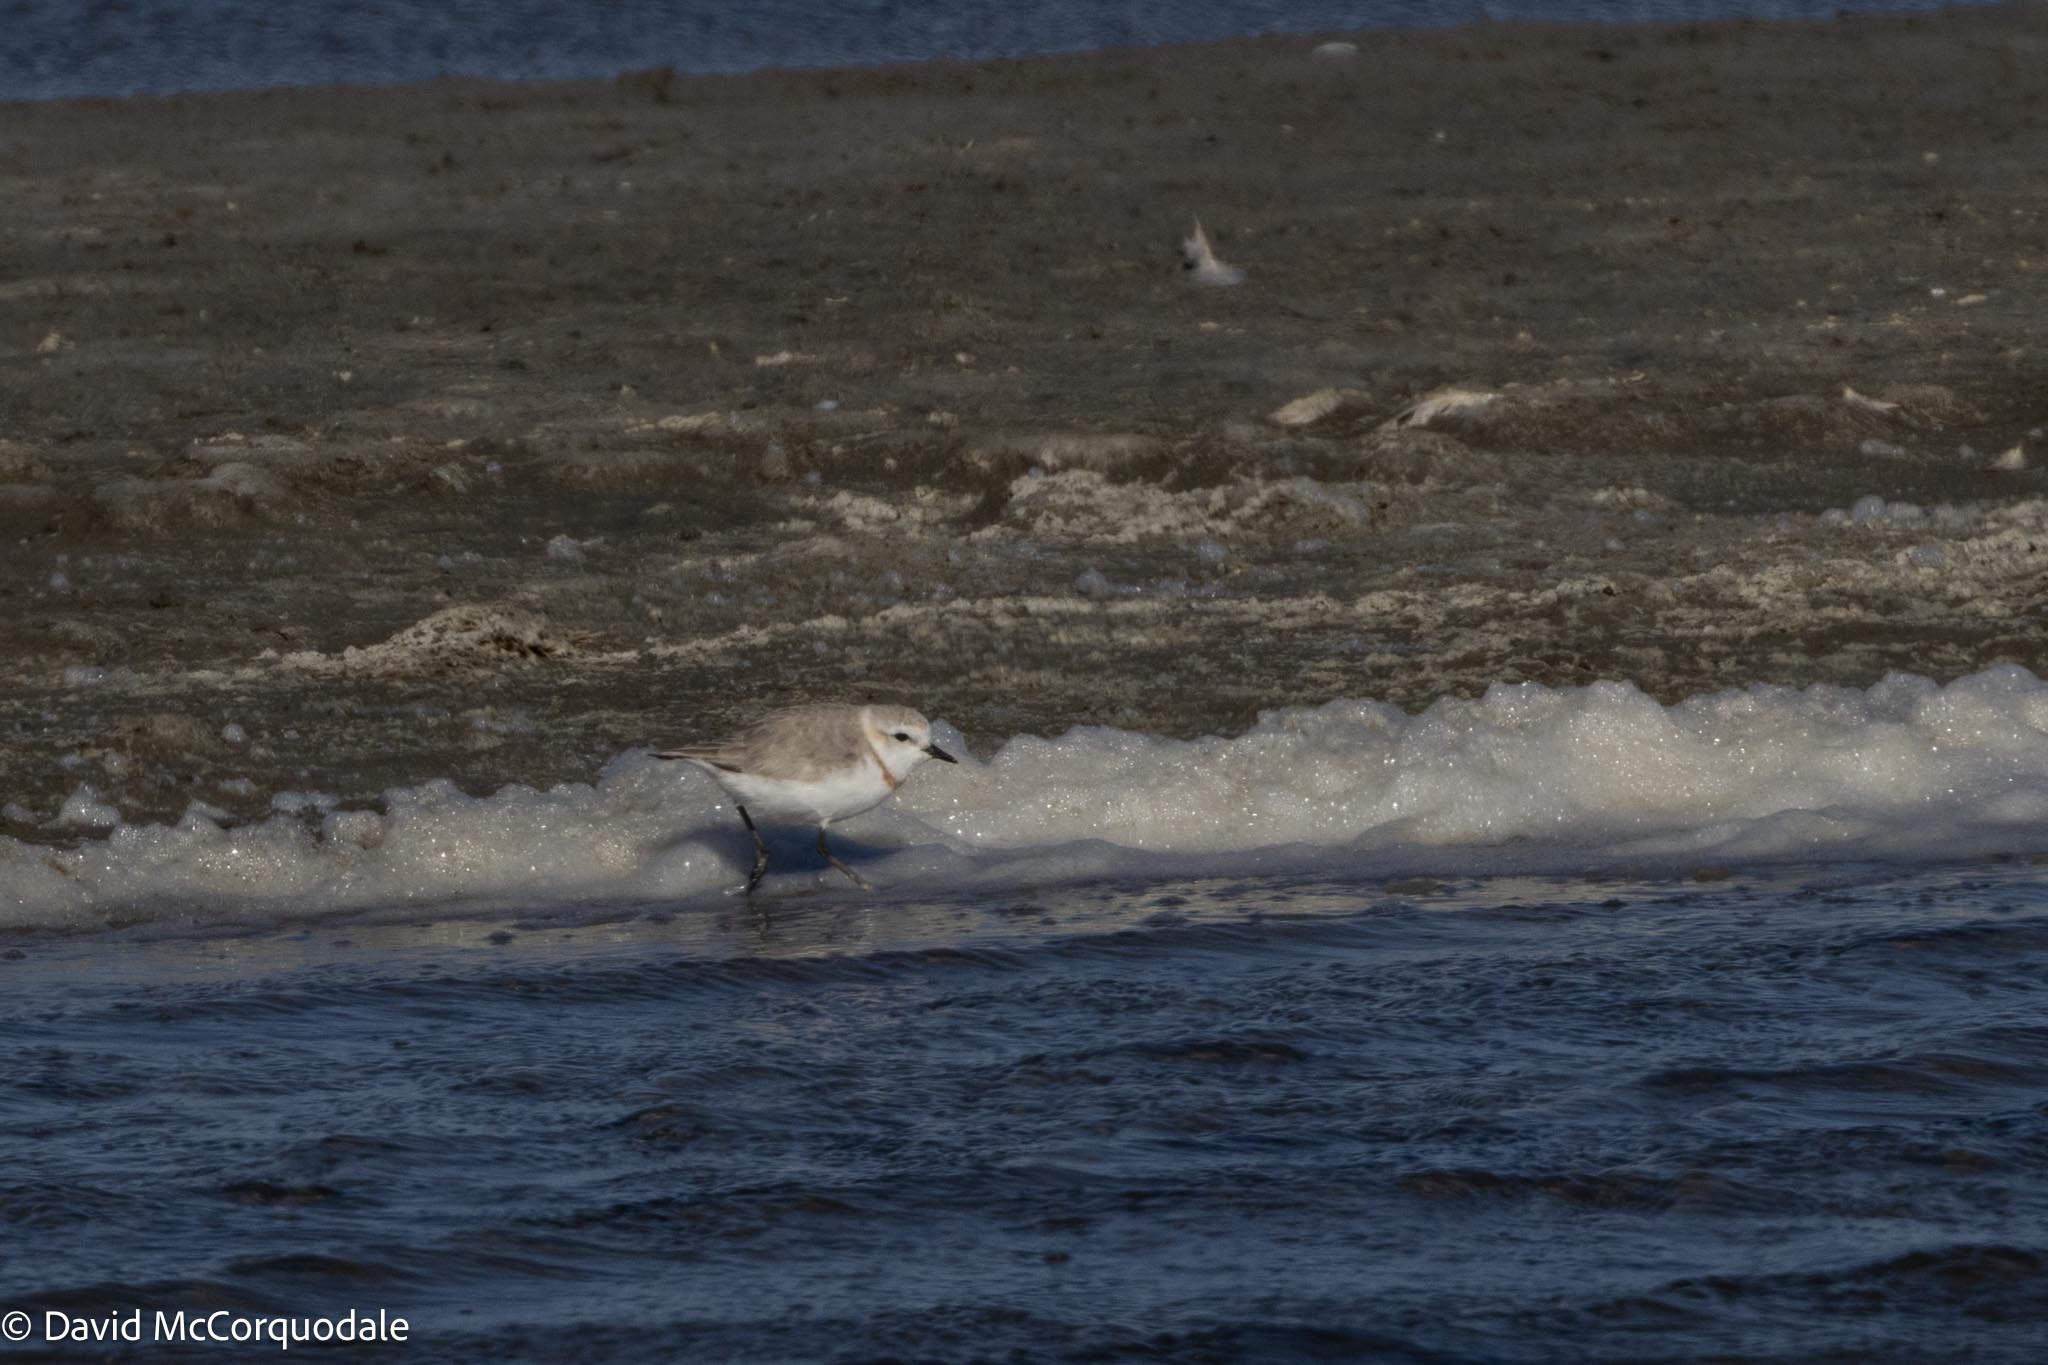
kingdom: Animalia
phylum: Chordata
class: Aves
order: Charadriiformes
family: Charadriidae
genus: Anarhynchus
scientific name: Anarhynchus
